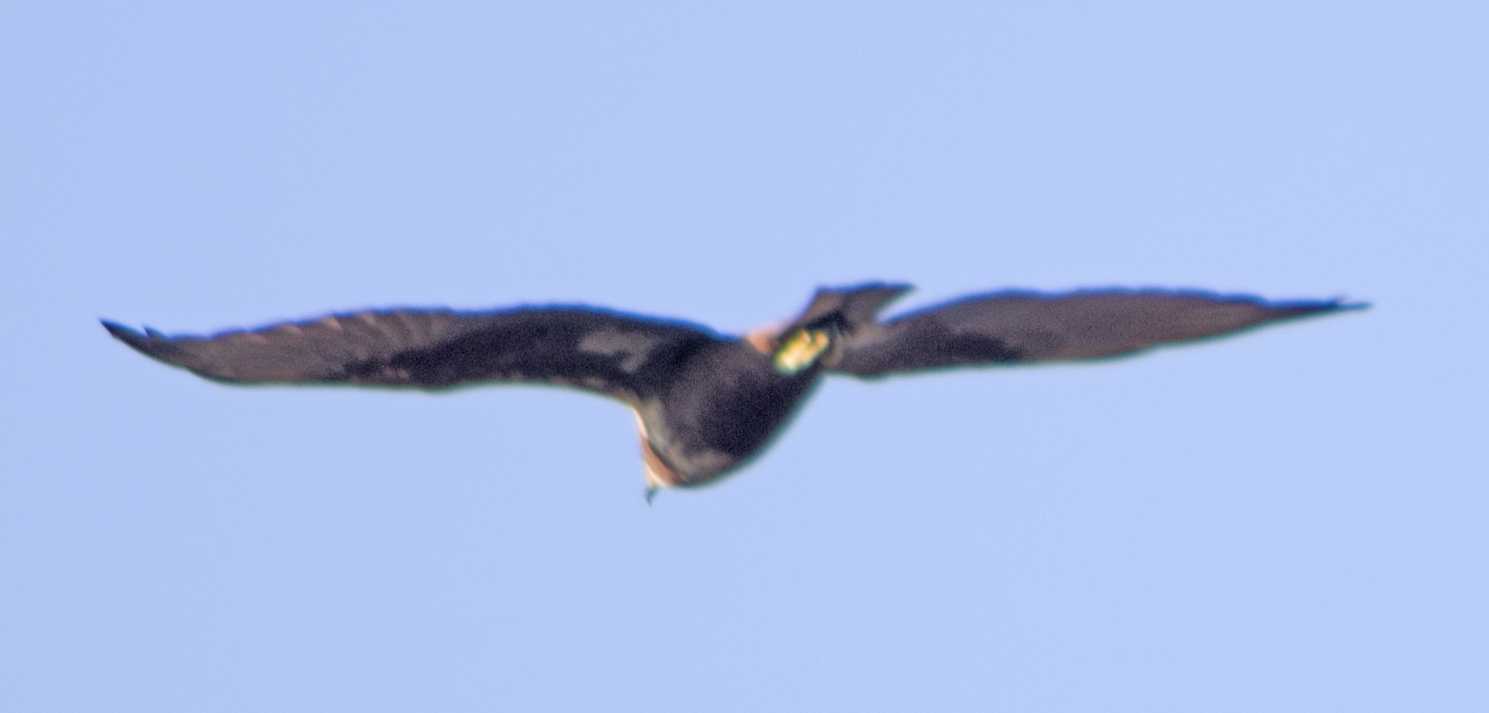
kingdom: Animalia
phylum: Chordata
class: Aves
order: Accipitriformes
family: Accipitridae
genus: Circus
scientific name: Circus aeruginosus
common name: Western marsh harrier
